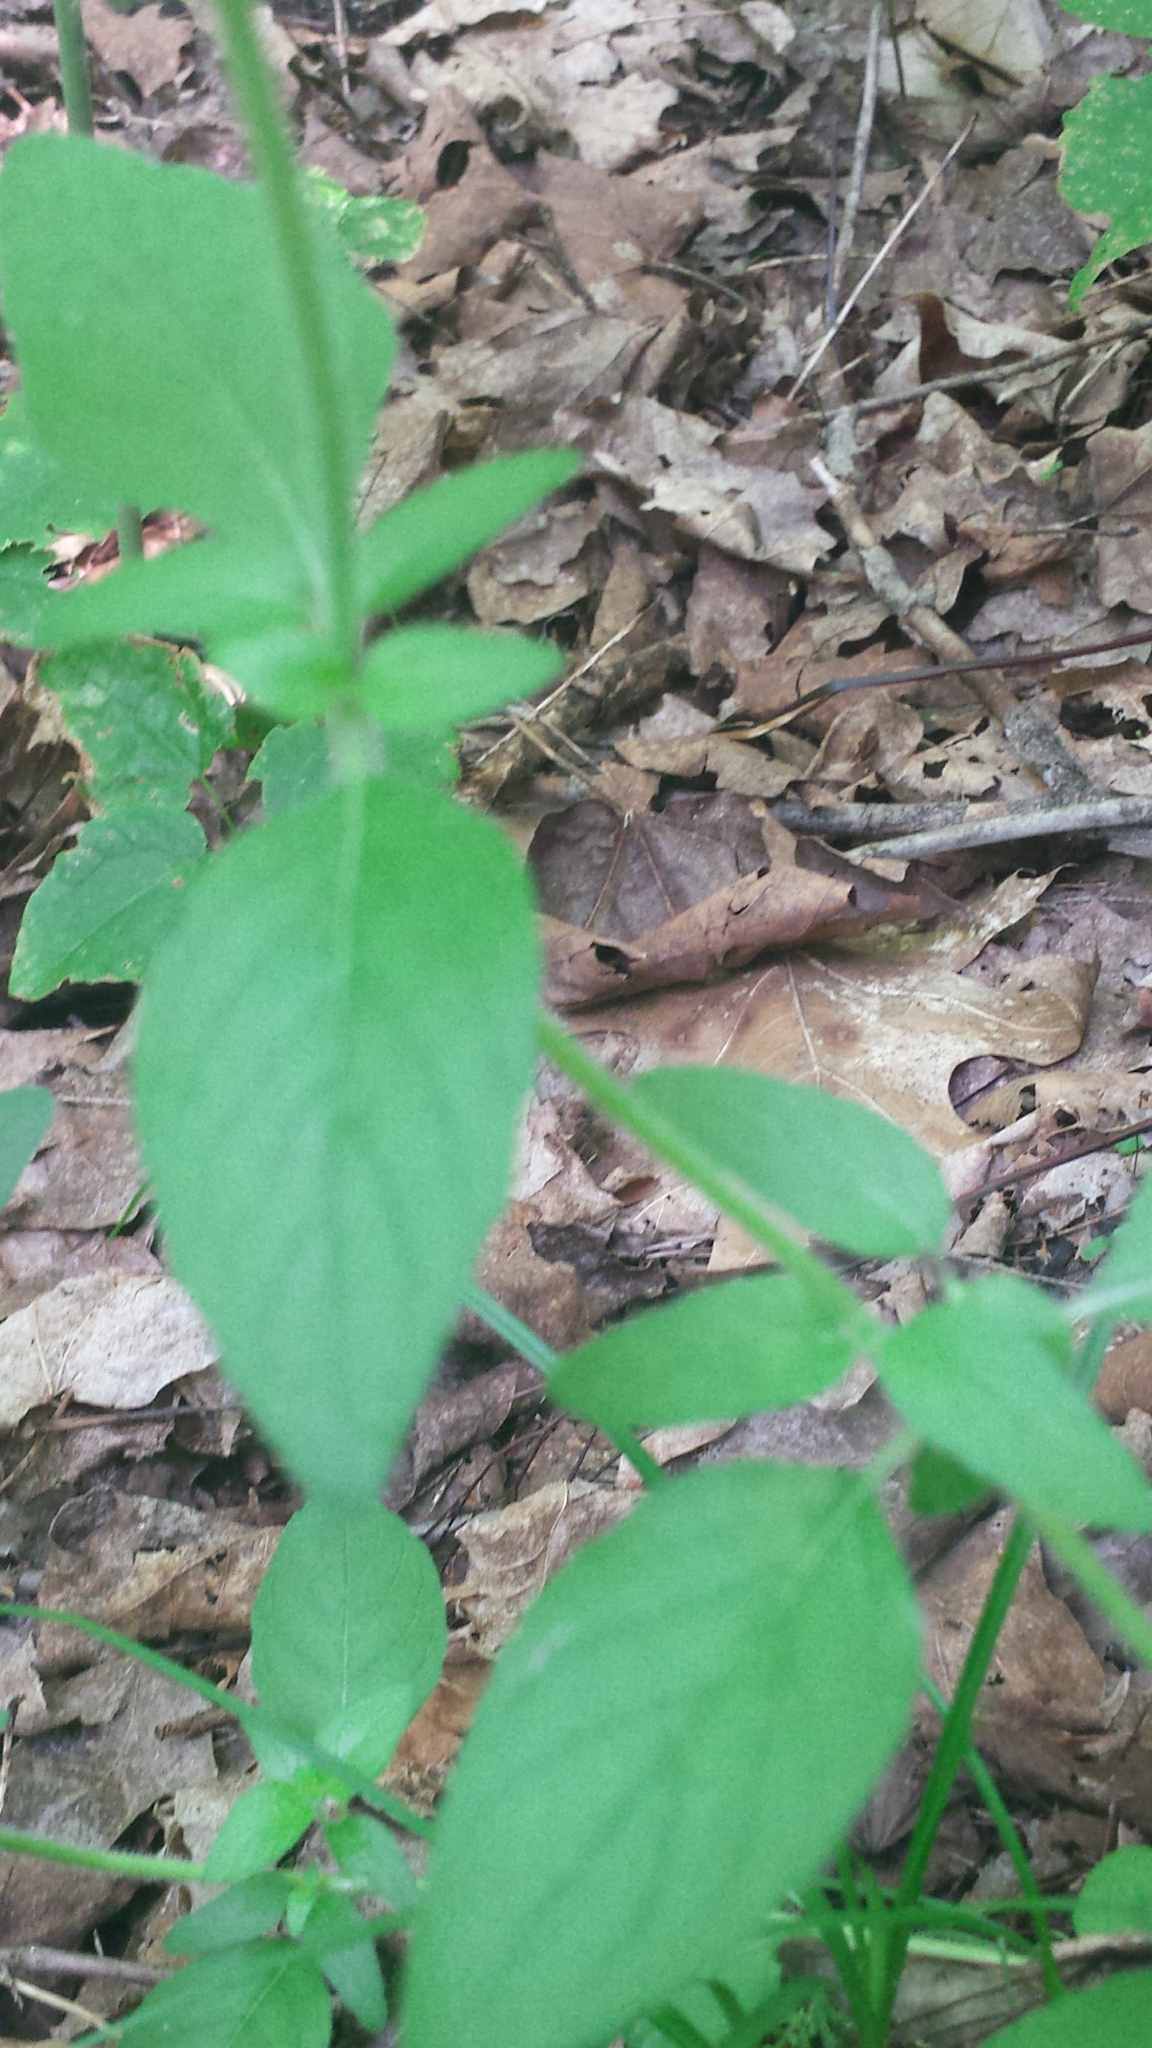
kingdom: Plantae
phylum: Tracheophyta
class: Magnoliopsida
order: Lamiales
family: Lamiaceae
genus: Clinopodium
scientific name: Clinopodium vulgare
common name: Wild basil
